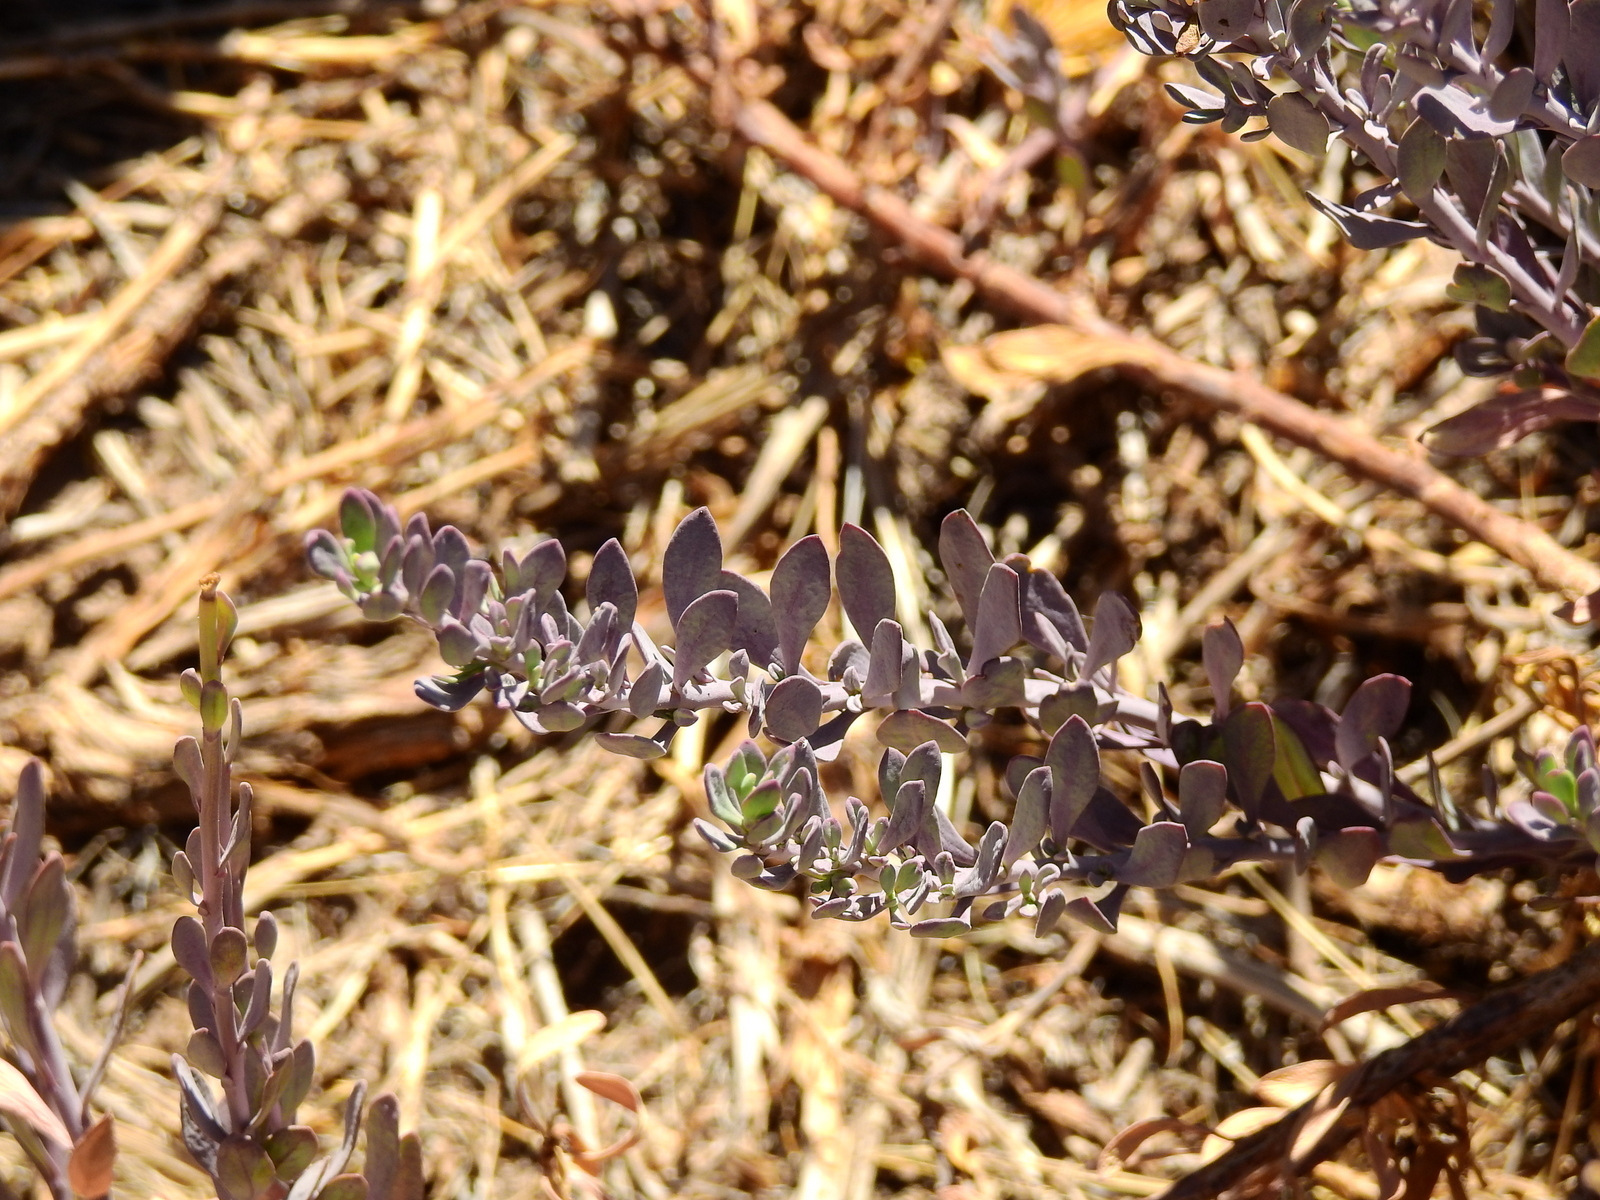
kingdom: Plantae
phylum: Tracheophyta
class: Magnoliopsida
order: Asterales
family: Asteraceae
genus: Senecio
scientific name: Senecio covasii
